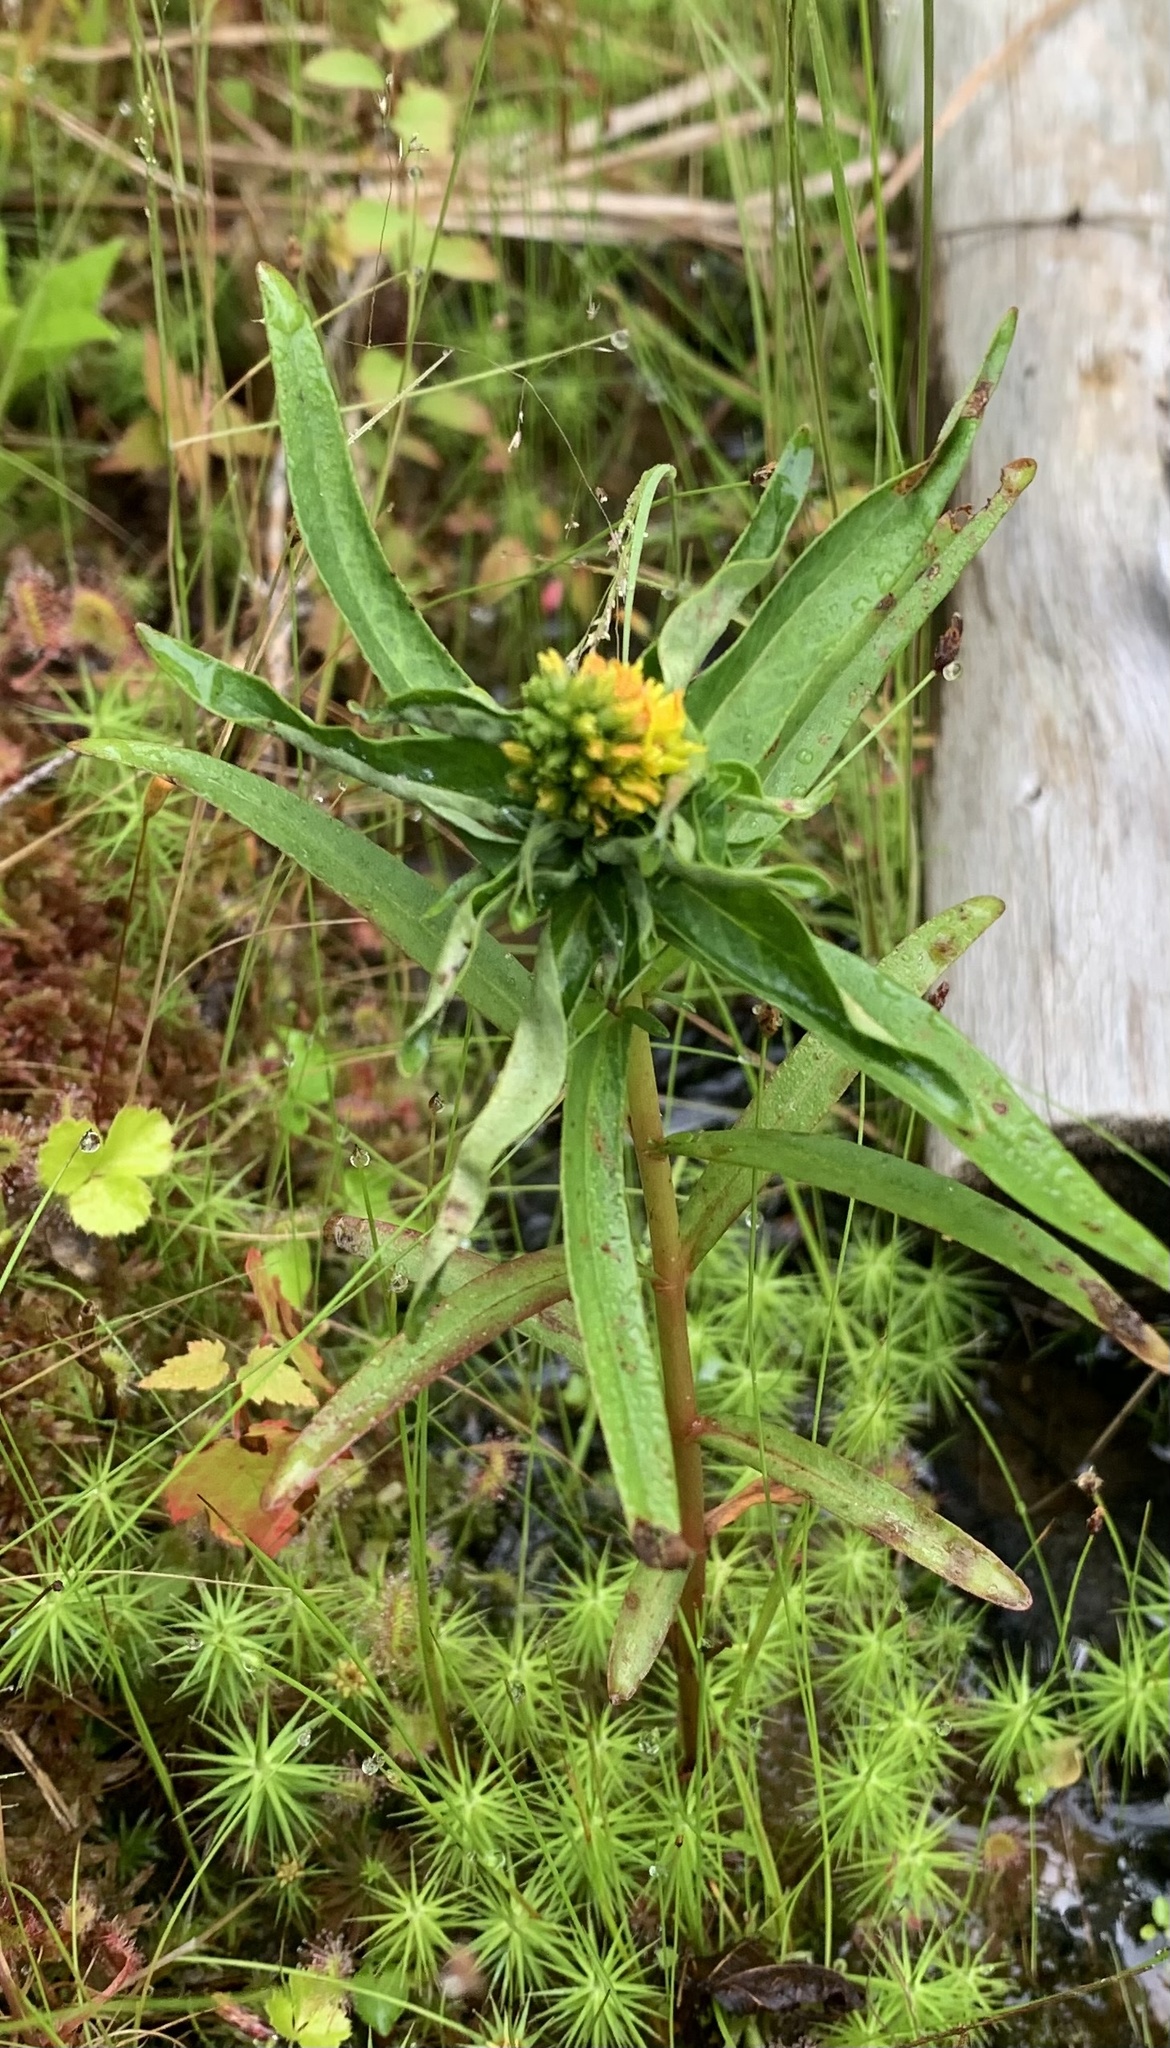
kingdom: Plantae
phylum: Tracheophyta
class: Magnoliopsida
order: Ericales
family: Primulaceae
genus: Lysimachia
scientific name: Lysimachia terrestris
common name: Lake loosestrife
